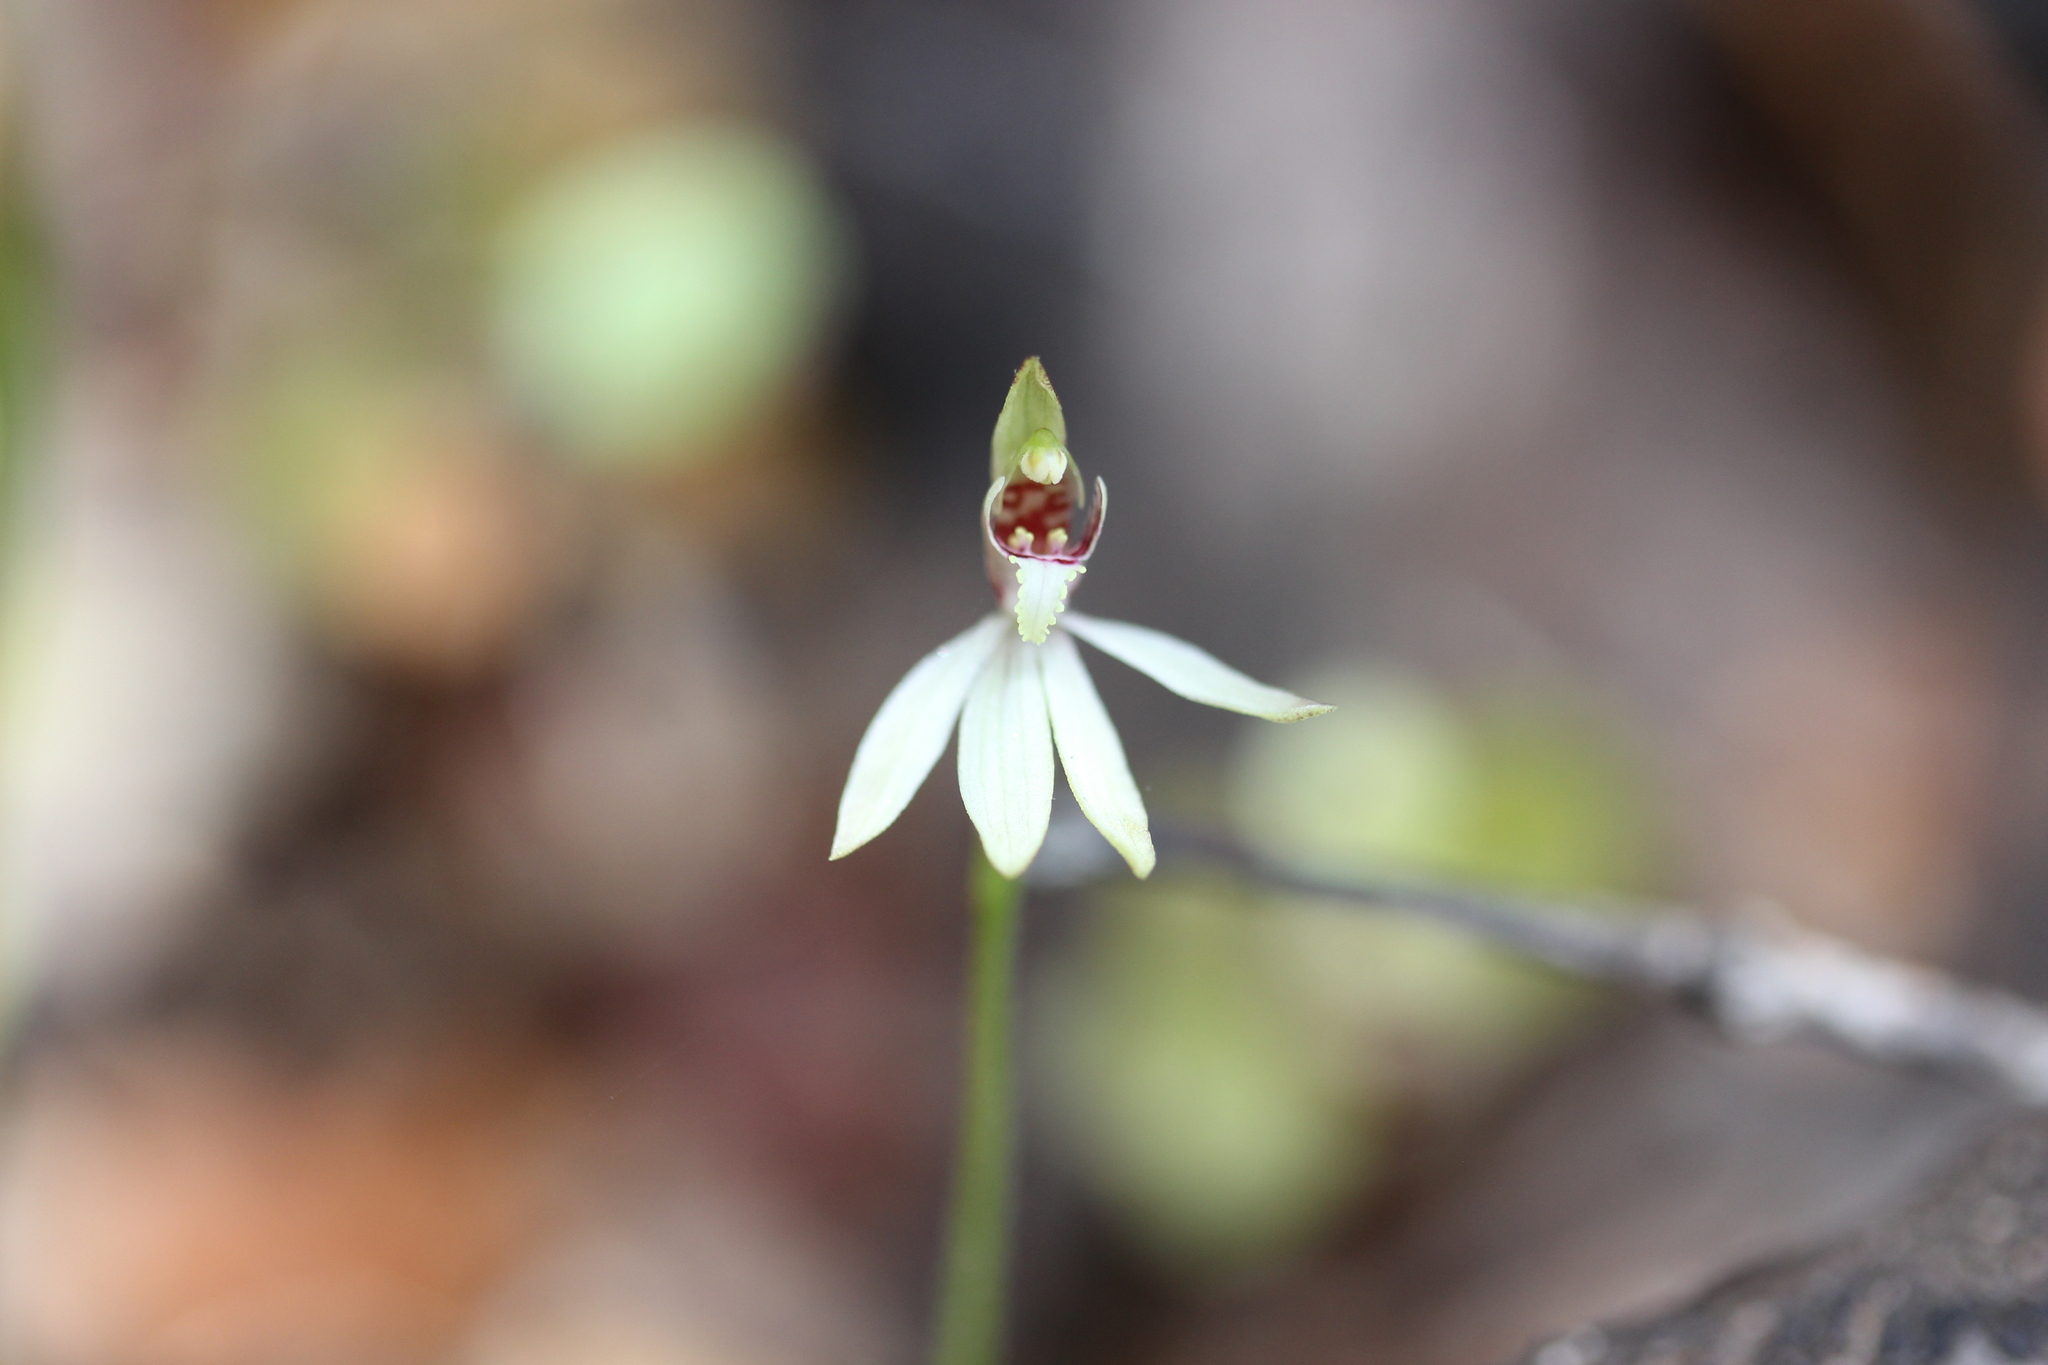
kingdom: Plantae
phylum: Tracheophyta
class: Liliopsida
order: Asparagales
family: Orchidaceae
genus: Caladenia
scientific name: Caladenia chlorostyla
